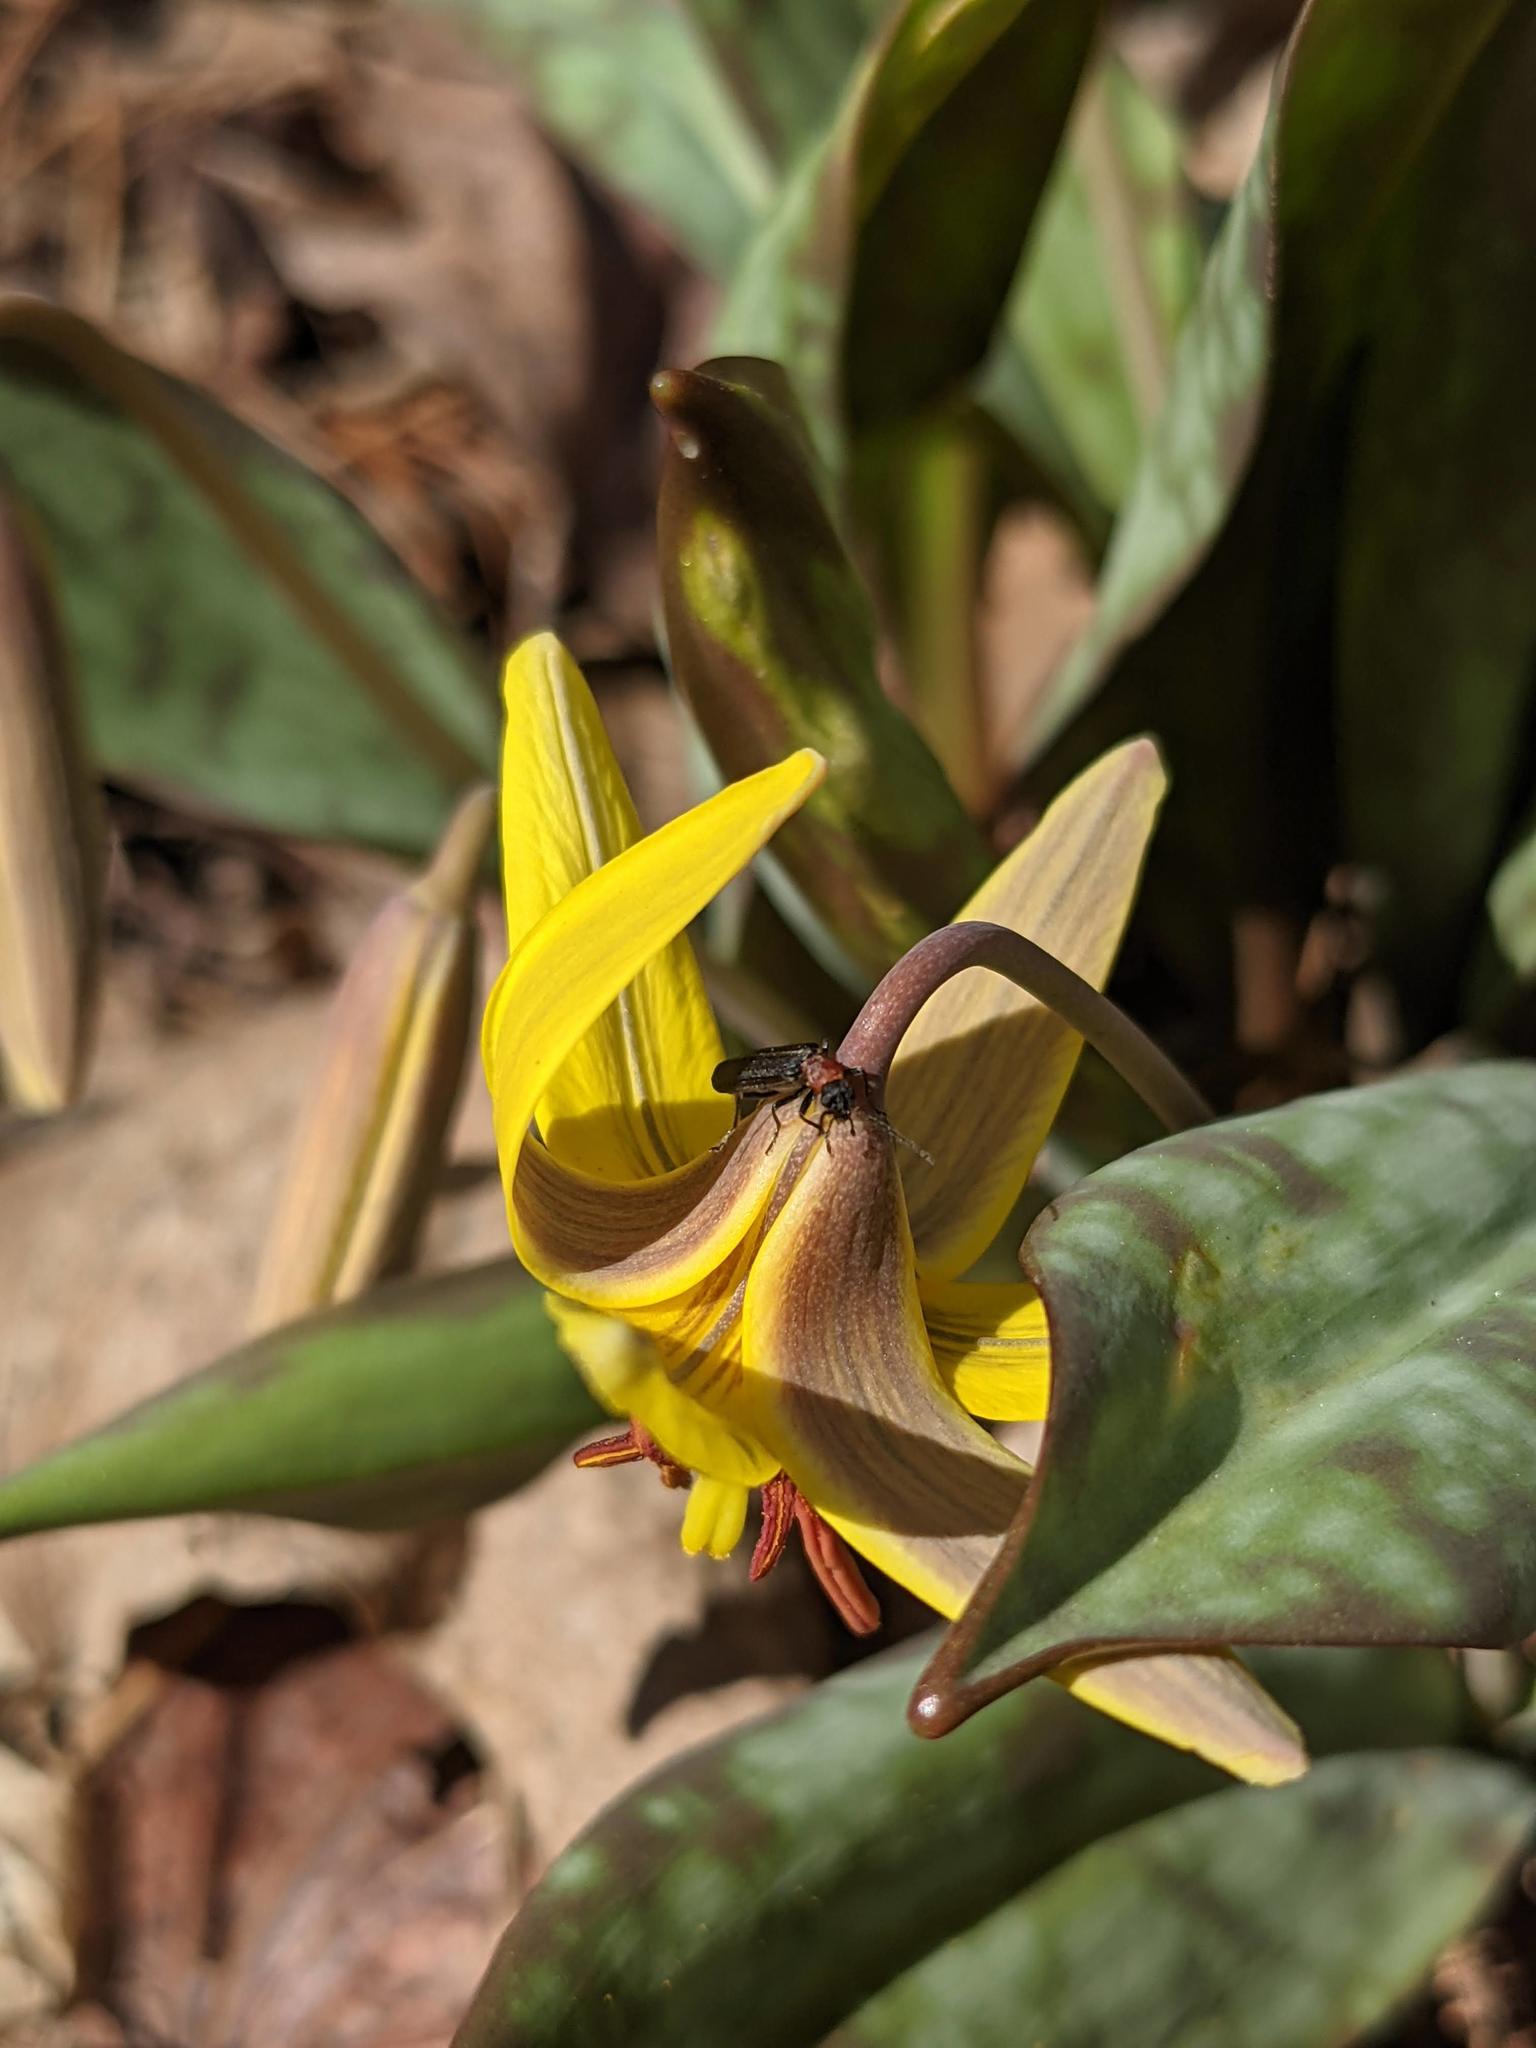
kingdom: Animalia
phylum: Arthropoda
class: Insecta
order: Coleoptera
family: Oedemeridae
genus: Ischnomera
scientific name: Ischnomera
